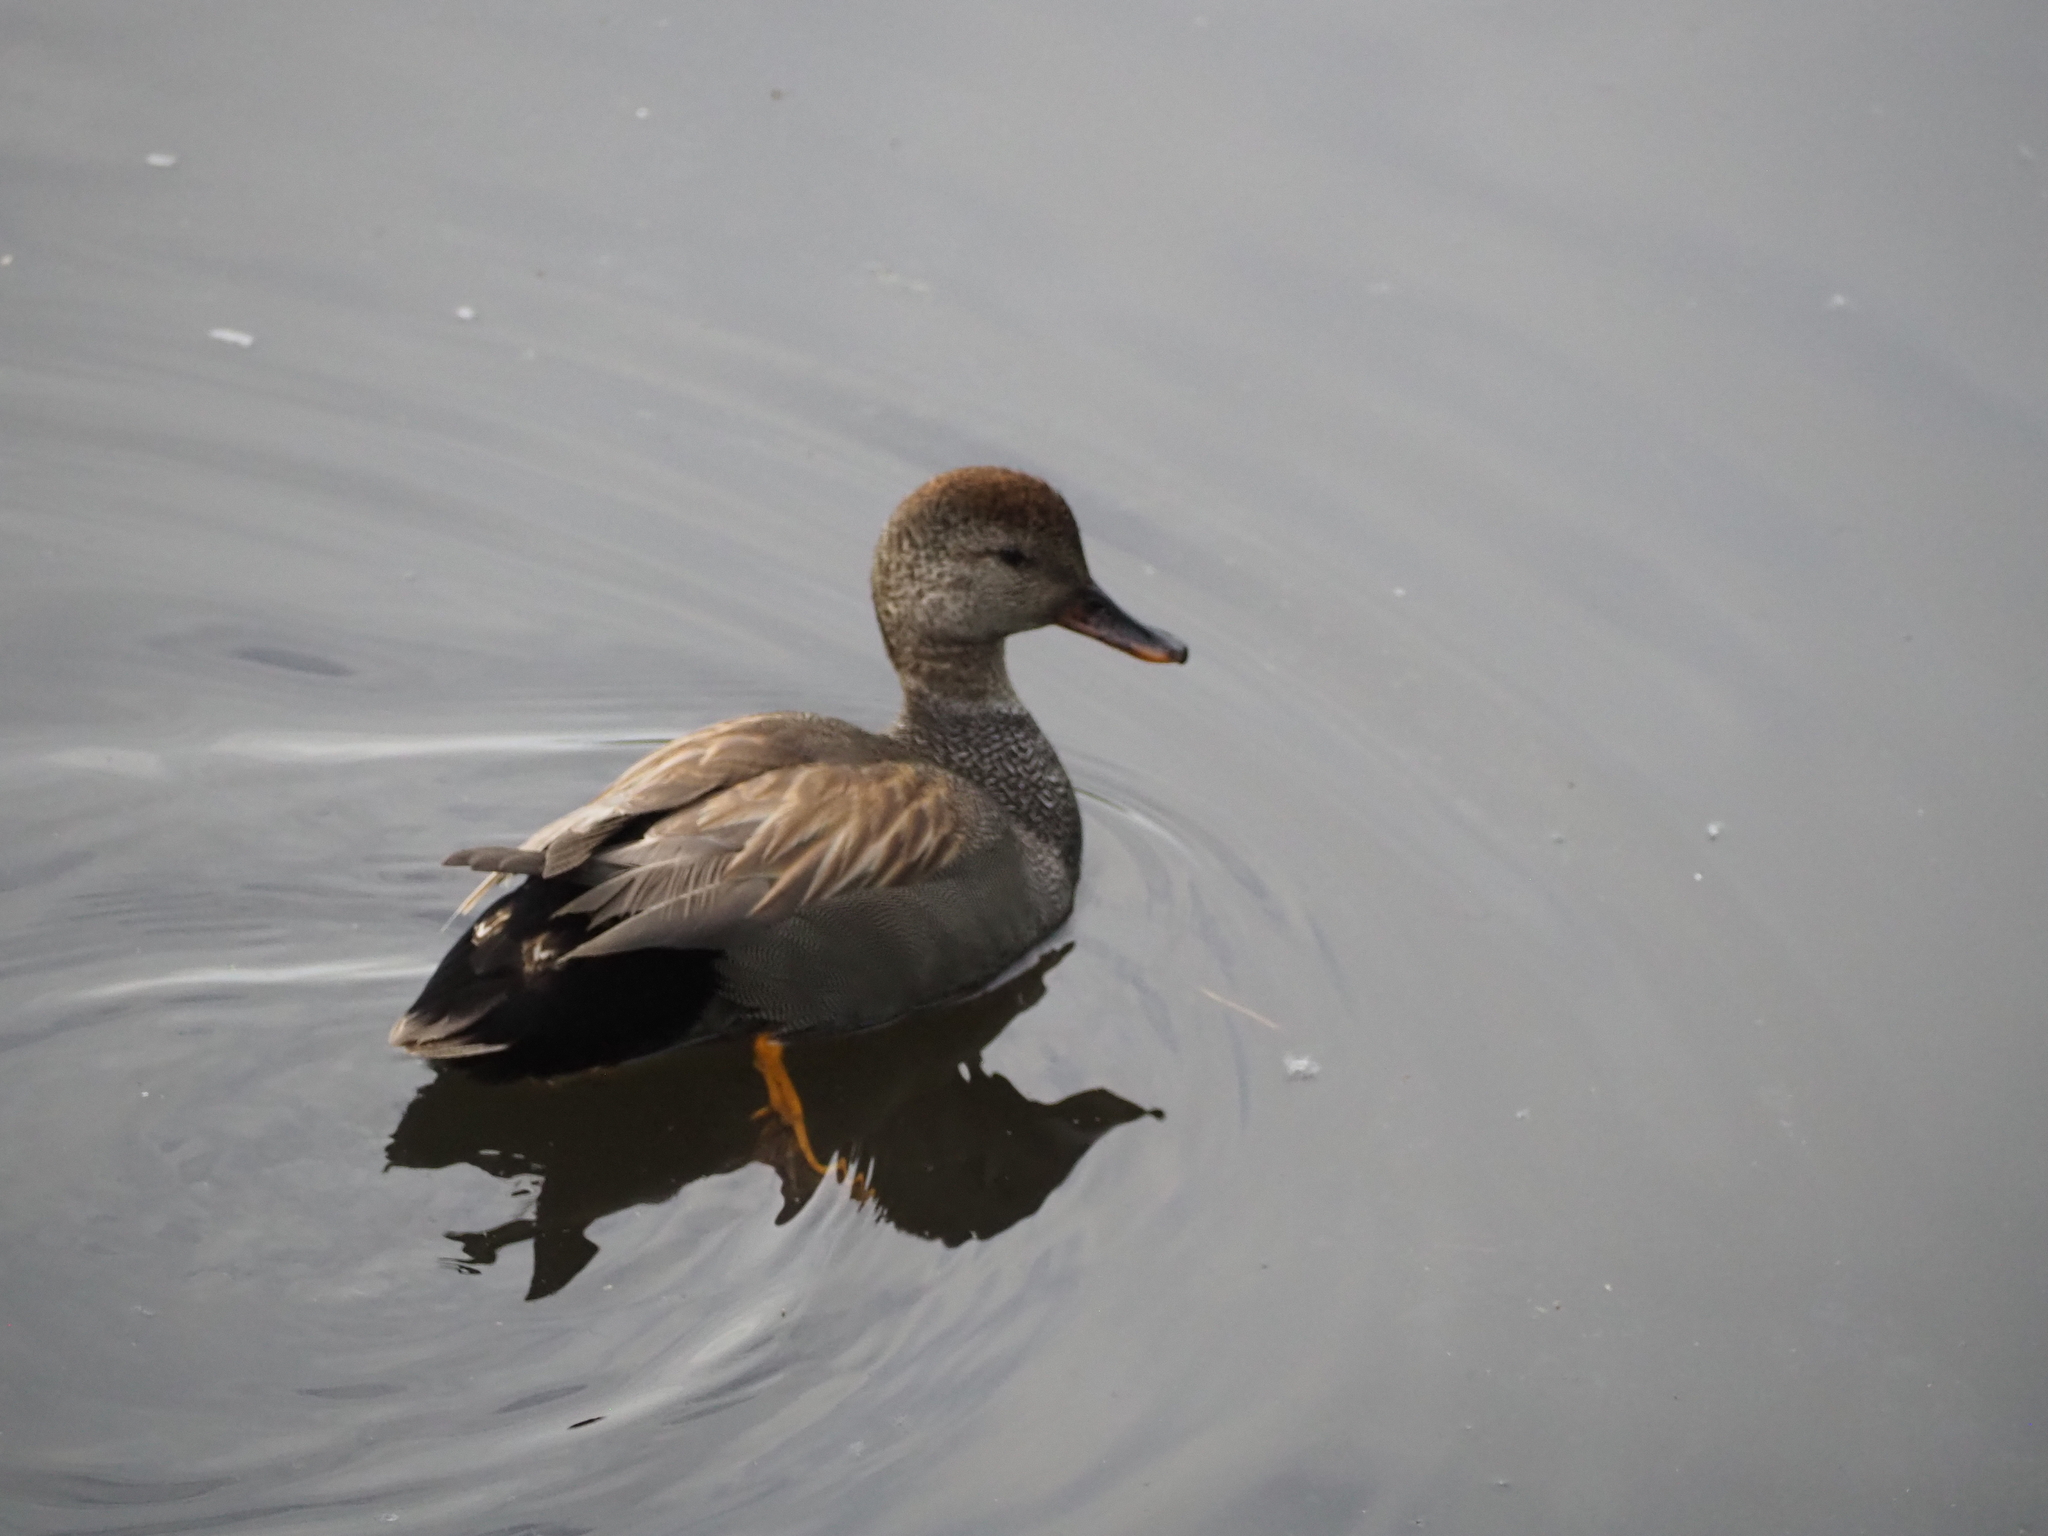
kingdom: Animalia
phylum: Chordata
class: Aves
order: Anseriformes
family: Anatidae
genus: Mareca
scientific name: Mareca strepera
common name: Gadwall
